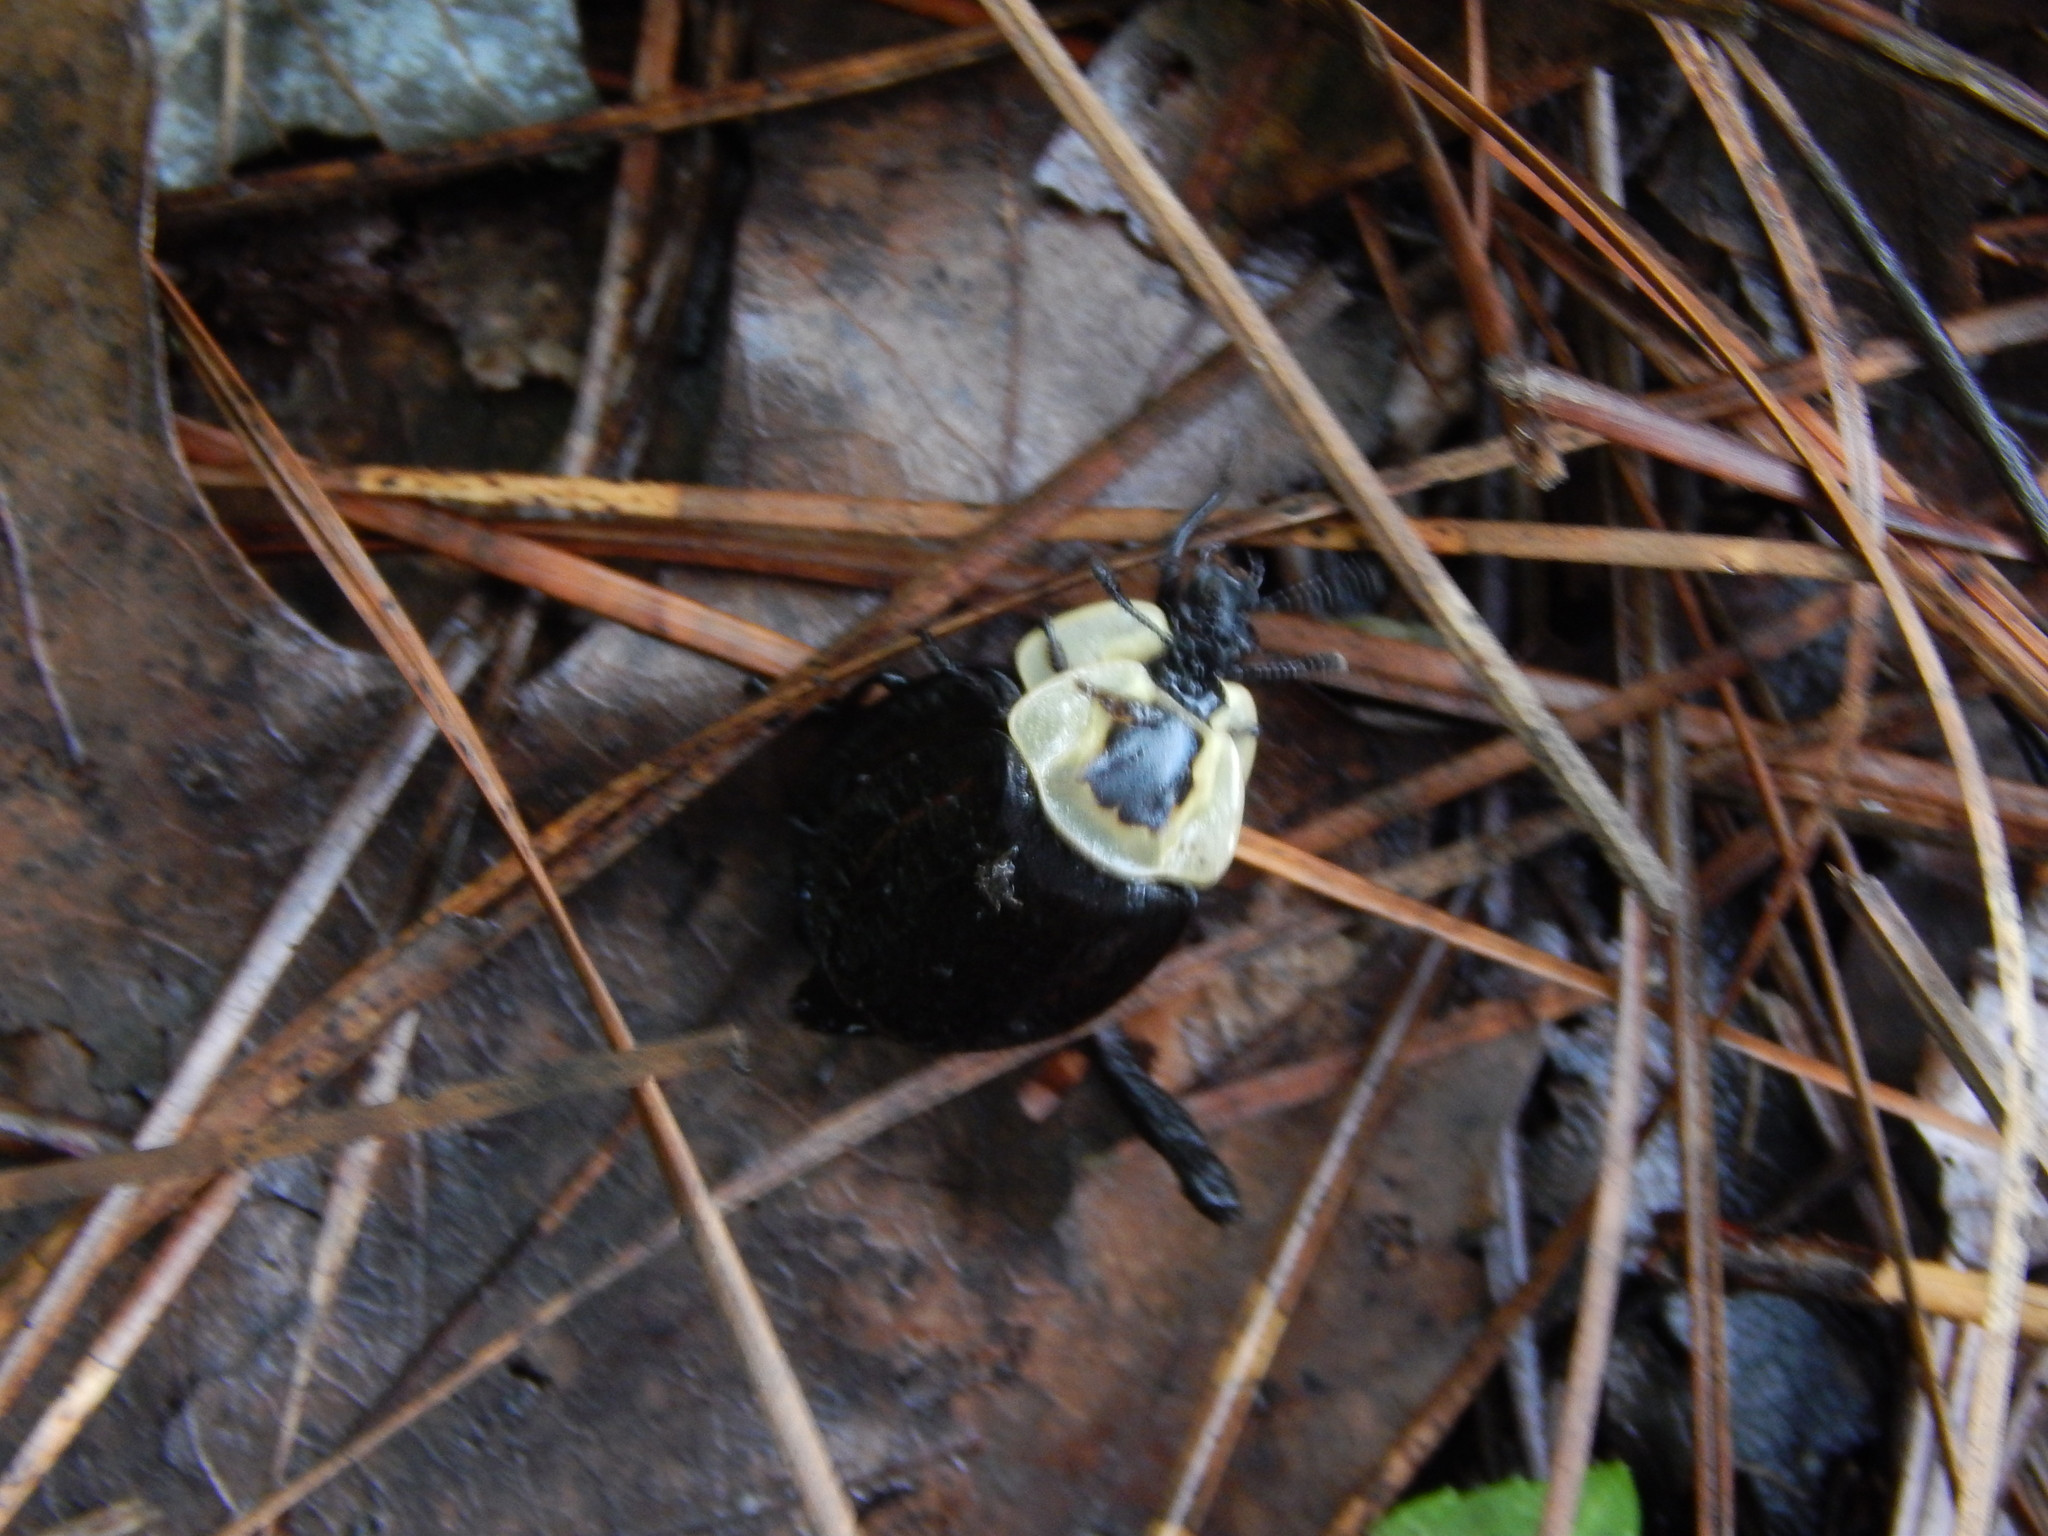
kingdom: Animalia
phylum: Arthropoda
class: Insecta
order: Coleoptera
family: Staphylinidae
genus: Necrophila
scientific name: Necrophila americana
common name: American carrion beetle
